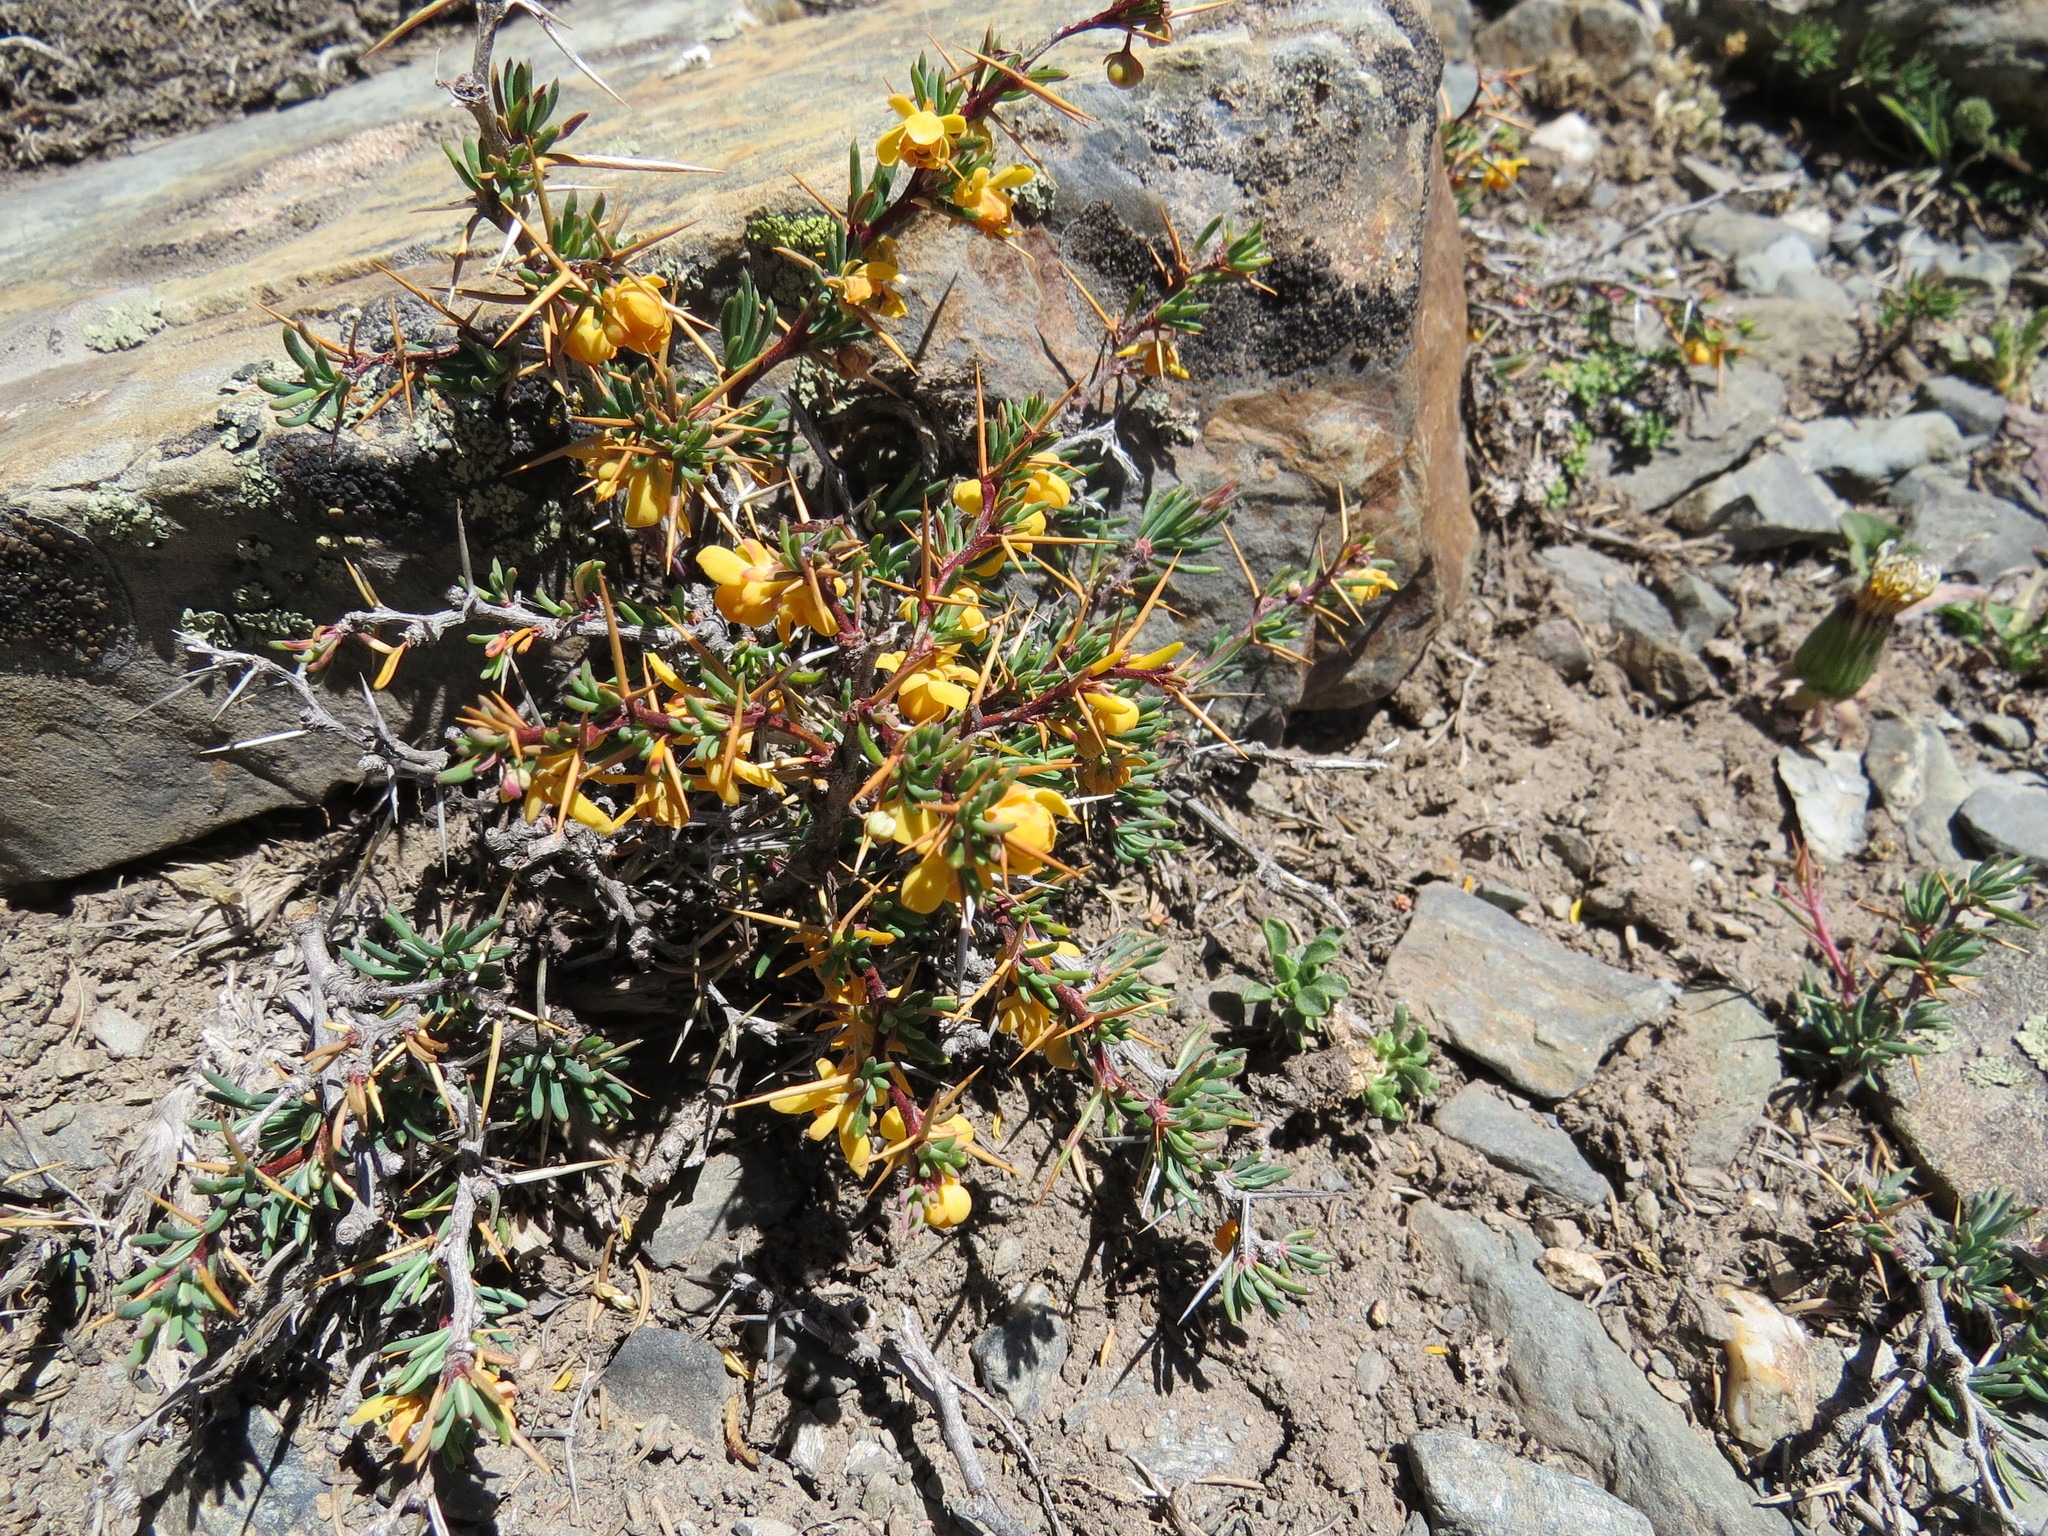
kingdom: Plantae
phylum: Tracheophyta
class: Magnoliopsida
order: Ranunculales
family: Berberidaceae
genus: Berberis
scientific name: Berberis empetrifolia
